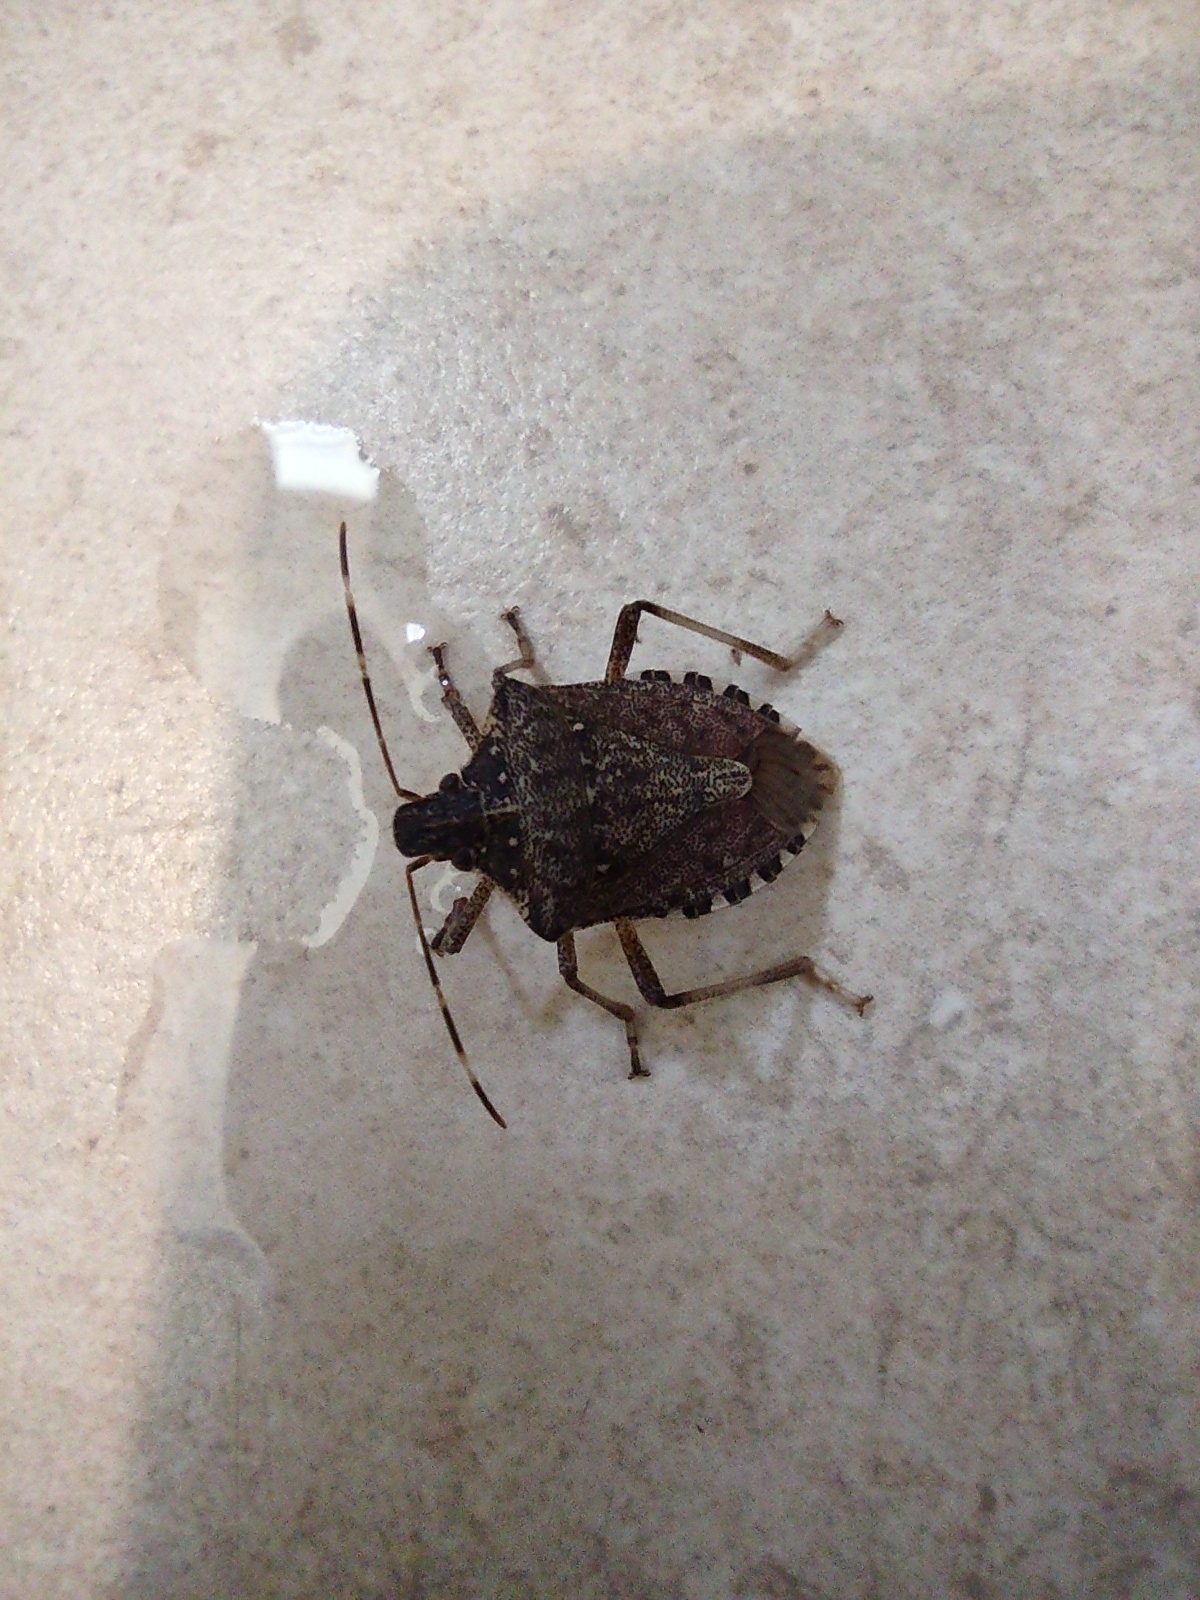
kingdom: Animalia
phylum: Arthropoda
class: Insecta
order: Hemiptera
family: Pentatomidae
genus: Halyomorpha
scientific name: Halyomorpha halys
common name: Brown marmorated stink bug
